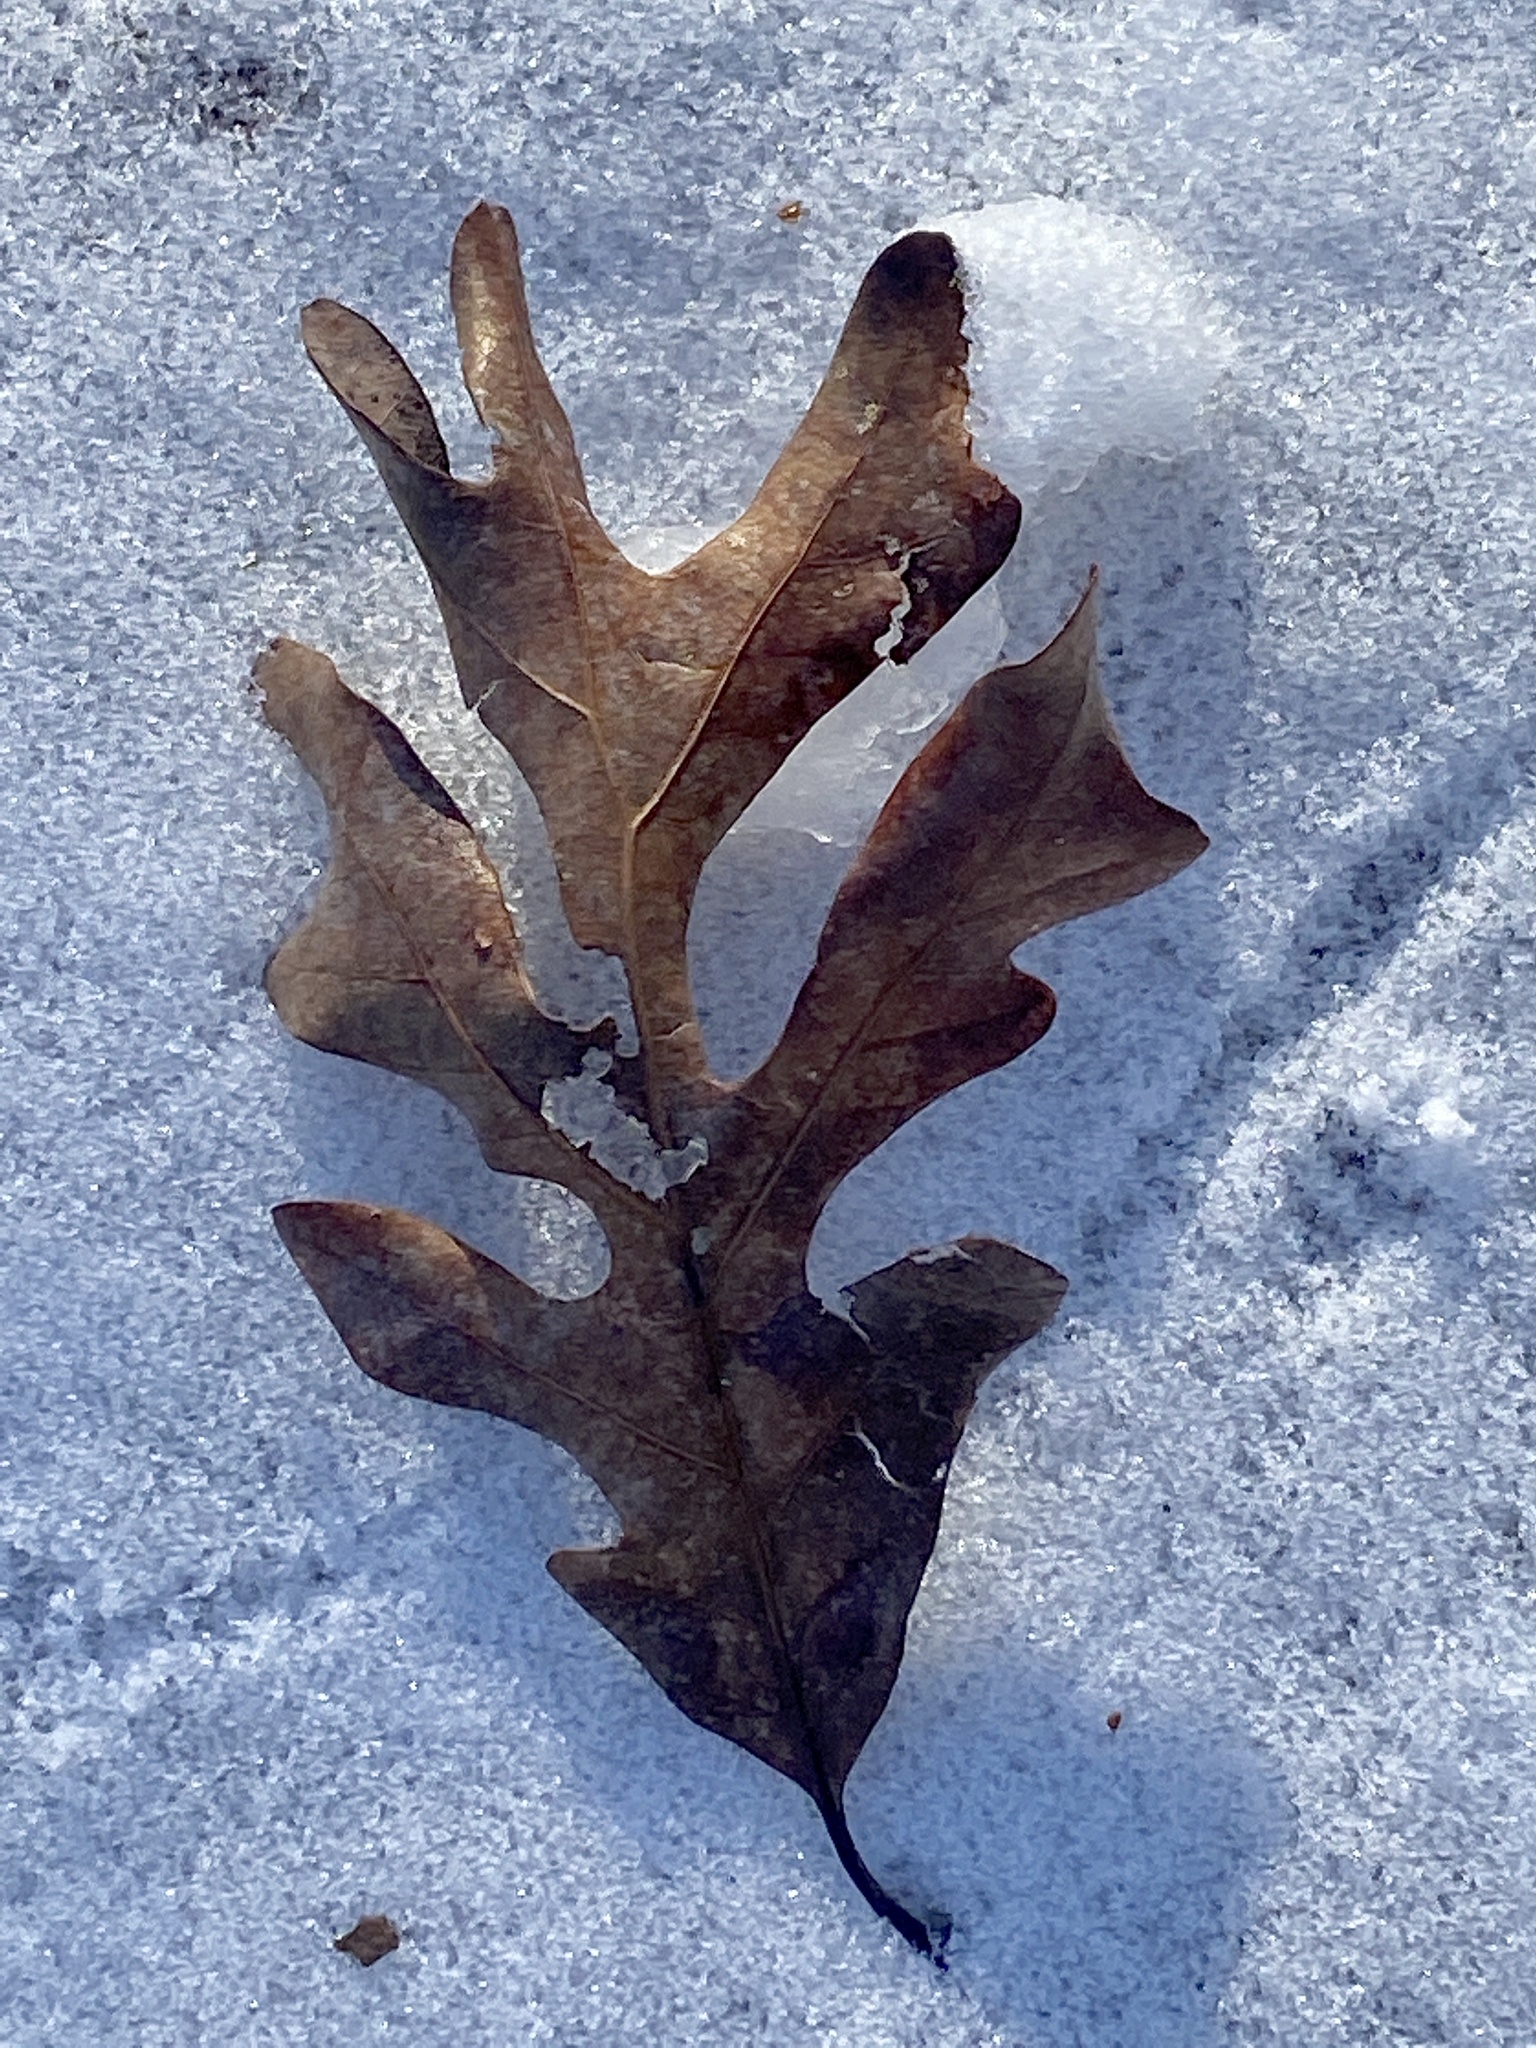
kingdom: Plantae
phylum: Tracheophyta
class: Magnoliopsida
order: Fagales
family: Fagaceae
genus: Quercus
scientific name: Quercus alba
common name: White oak
